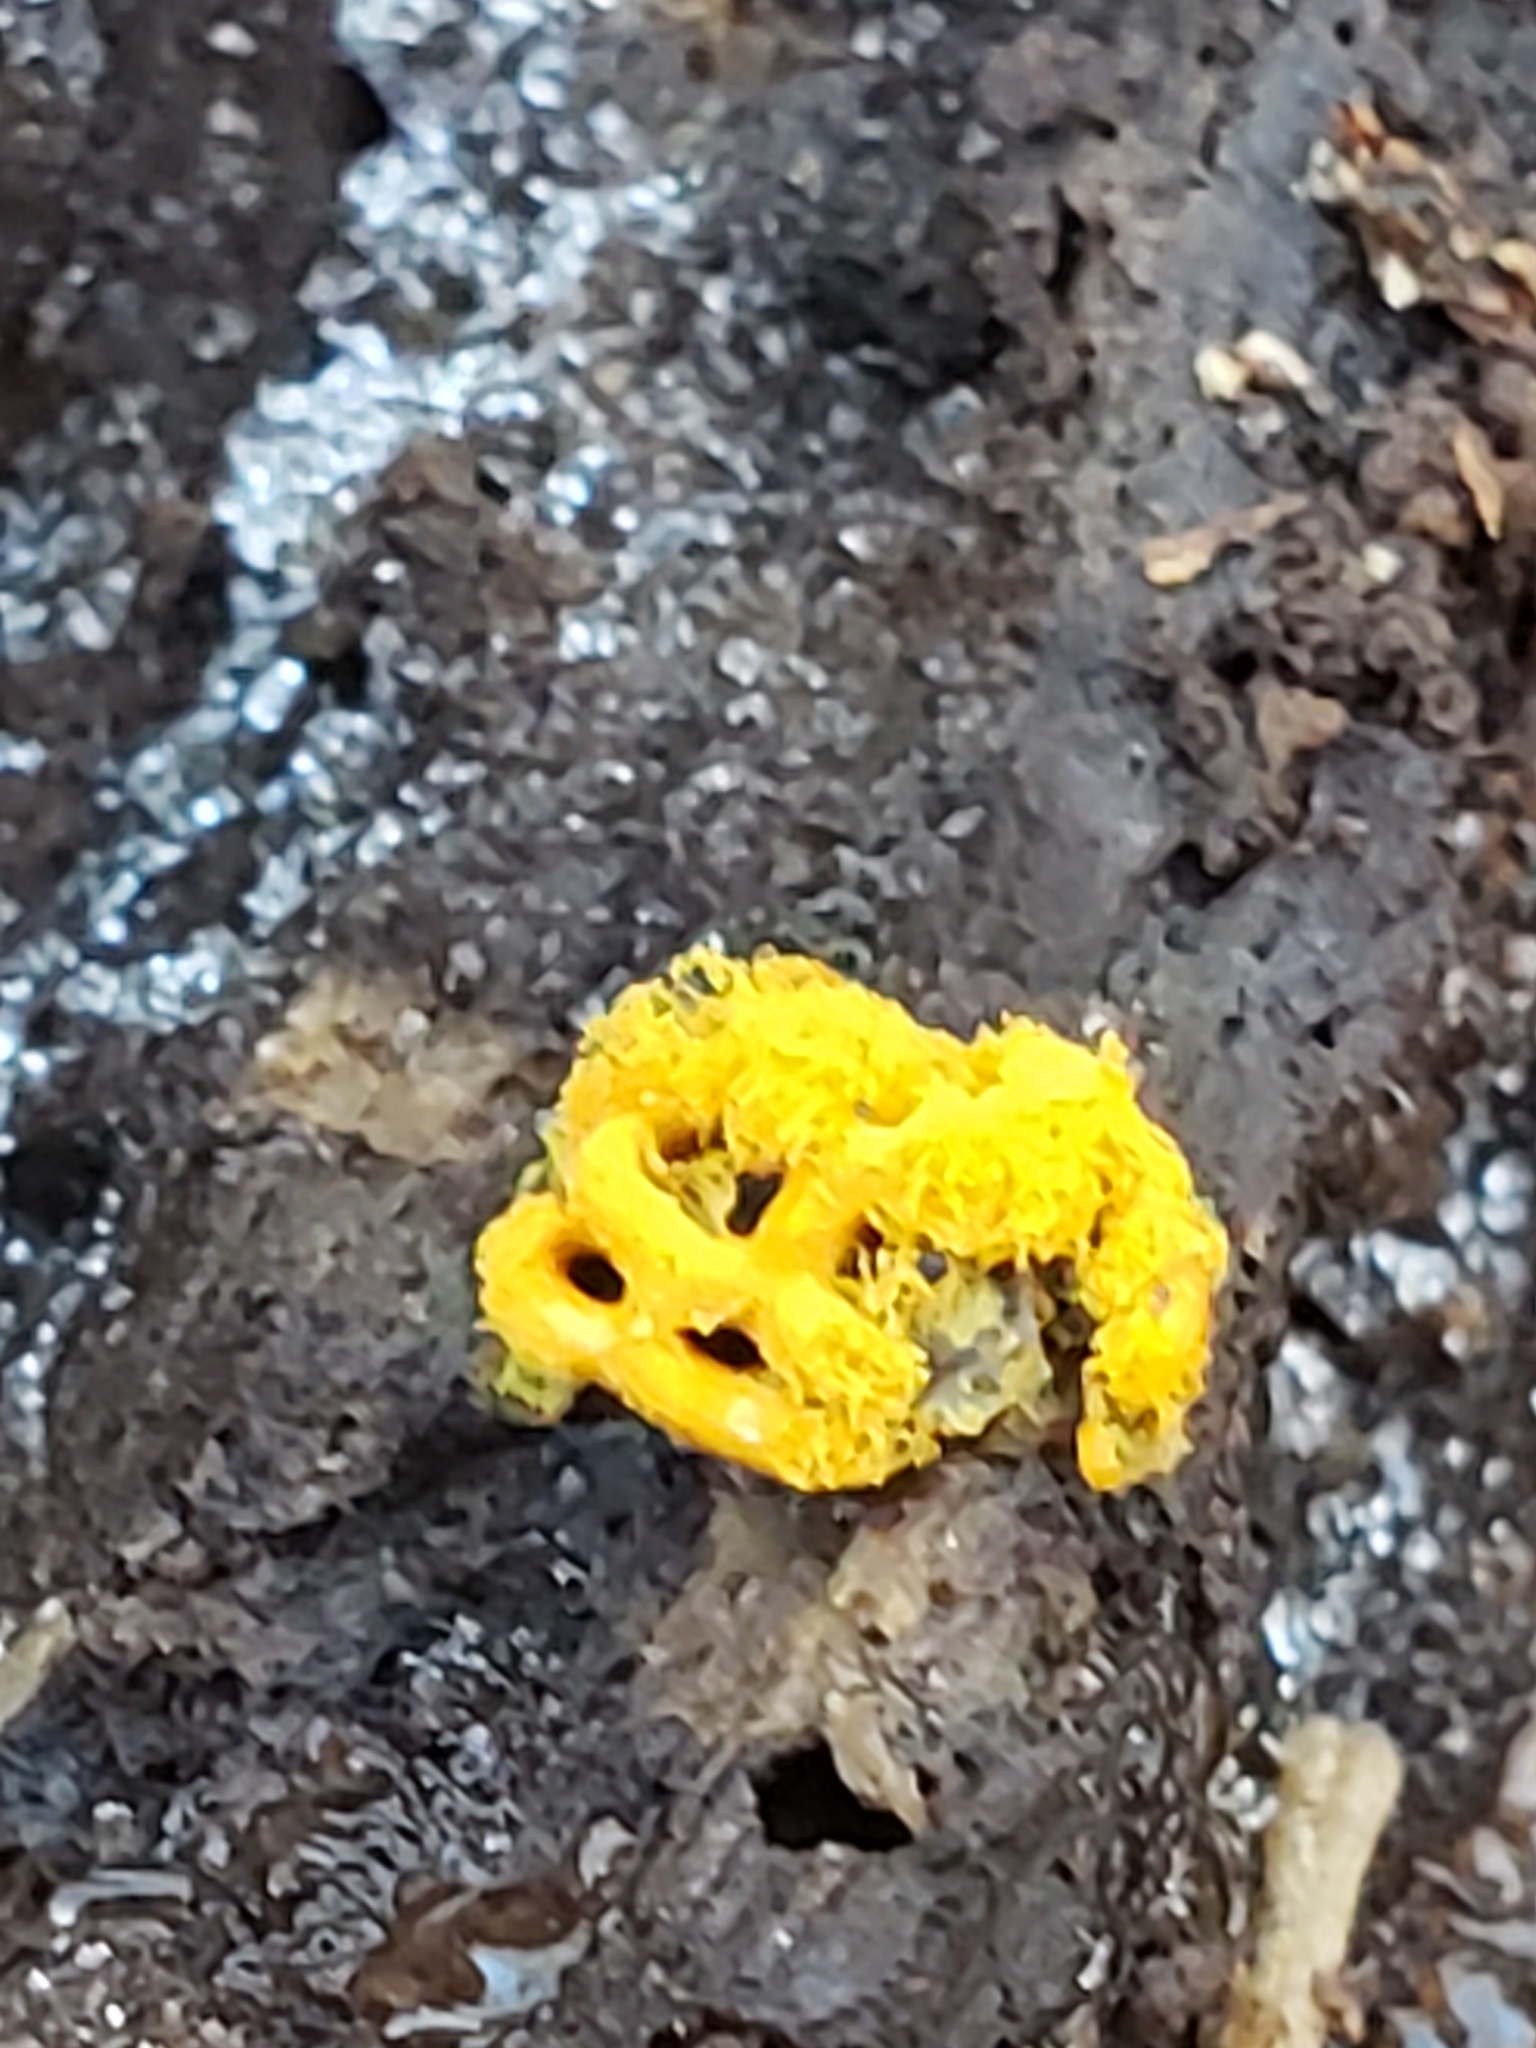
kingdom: Protozoa
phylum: Mycetozoa
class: Myxomycetes
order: Trichiales
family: Arcyriaceae
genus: Hemitrichia
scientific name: Hemitrichia serpula
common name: Pretzel slime mold
